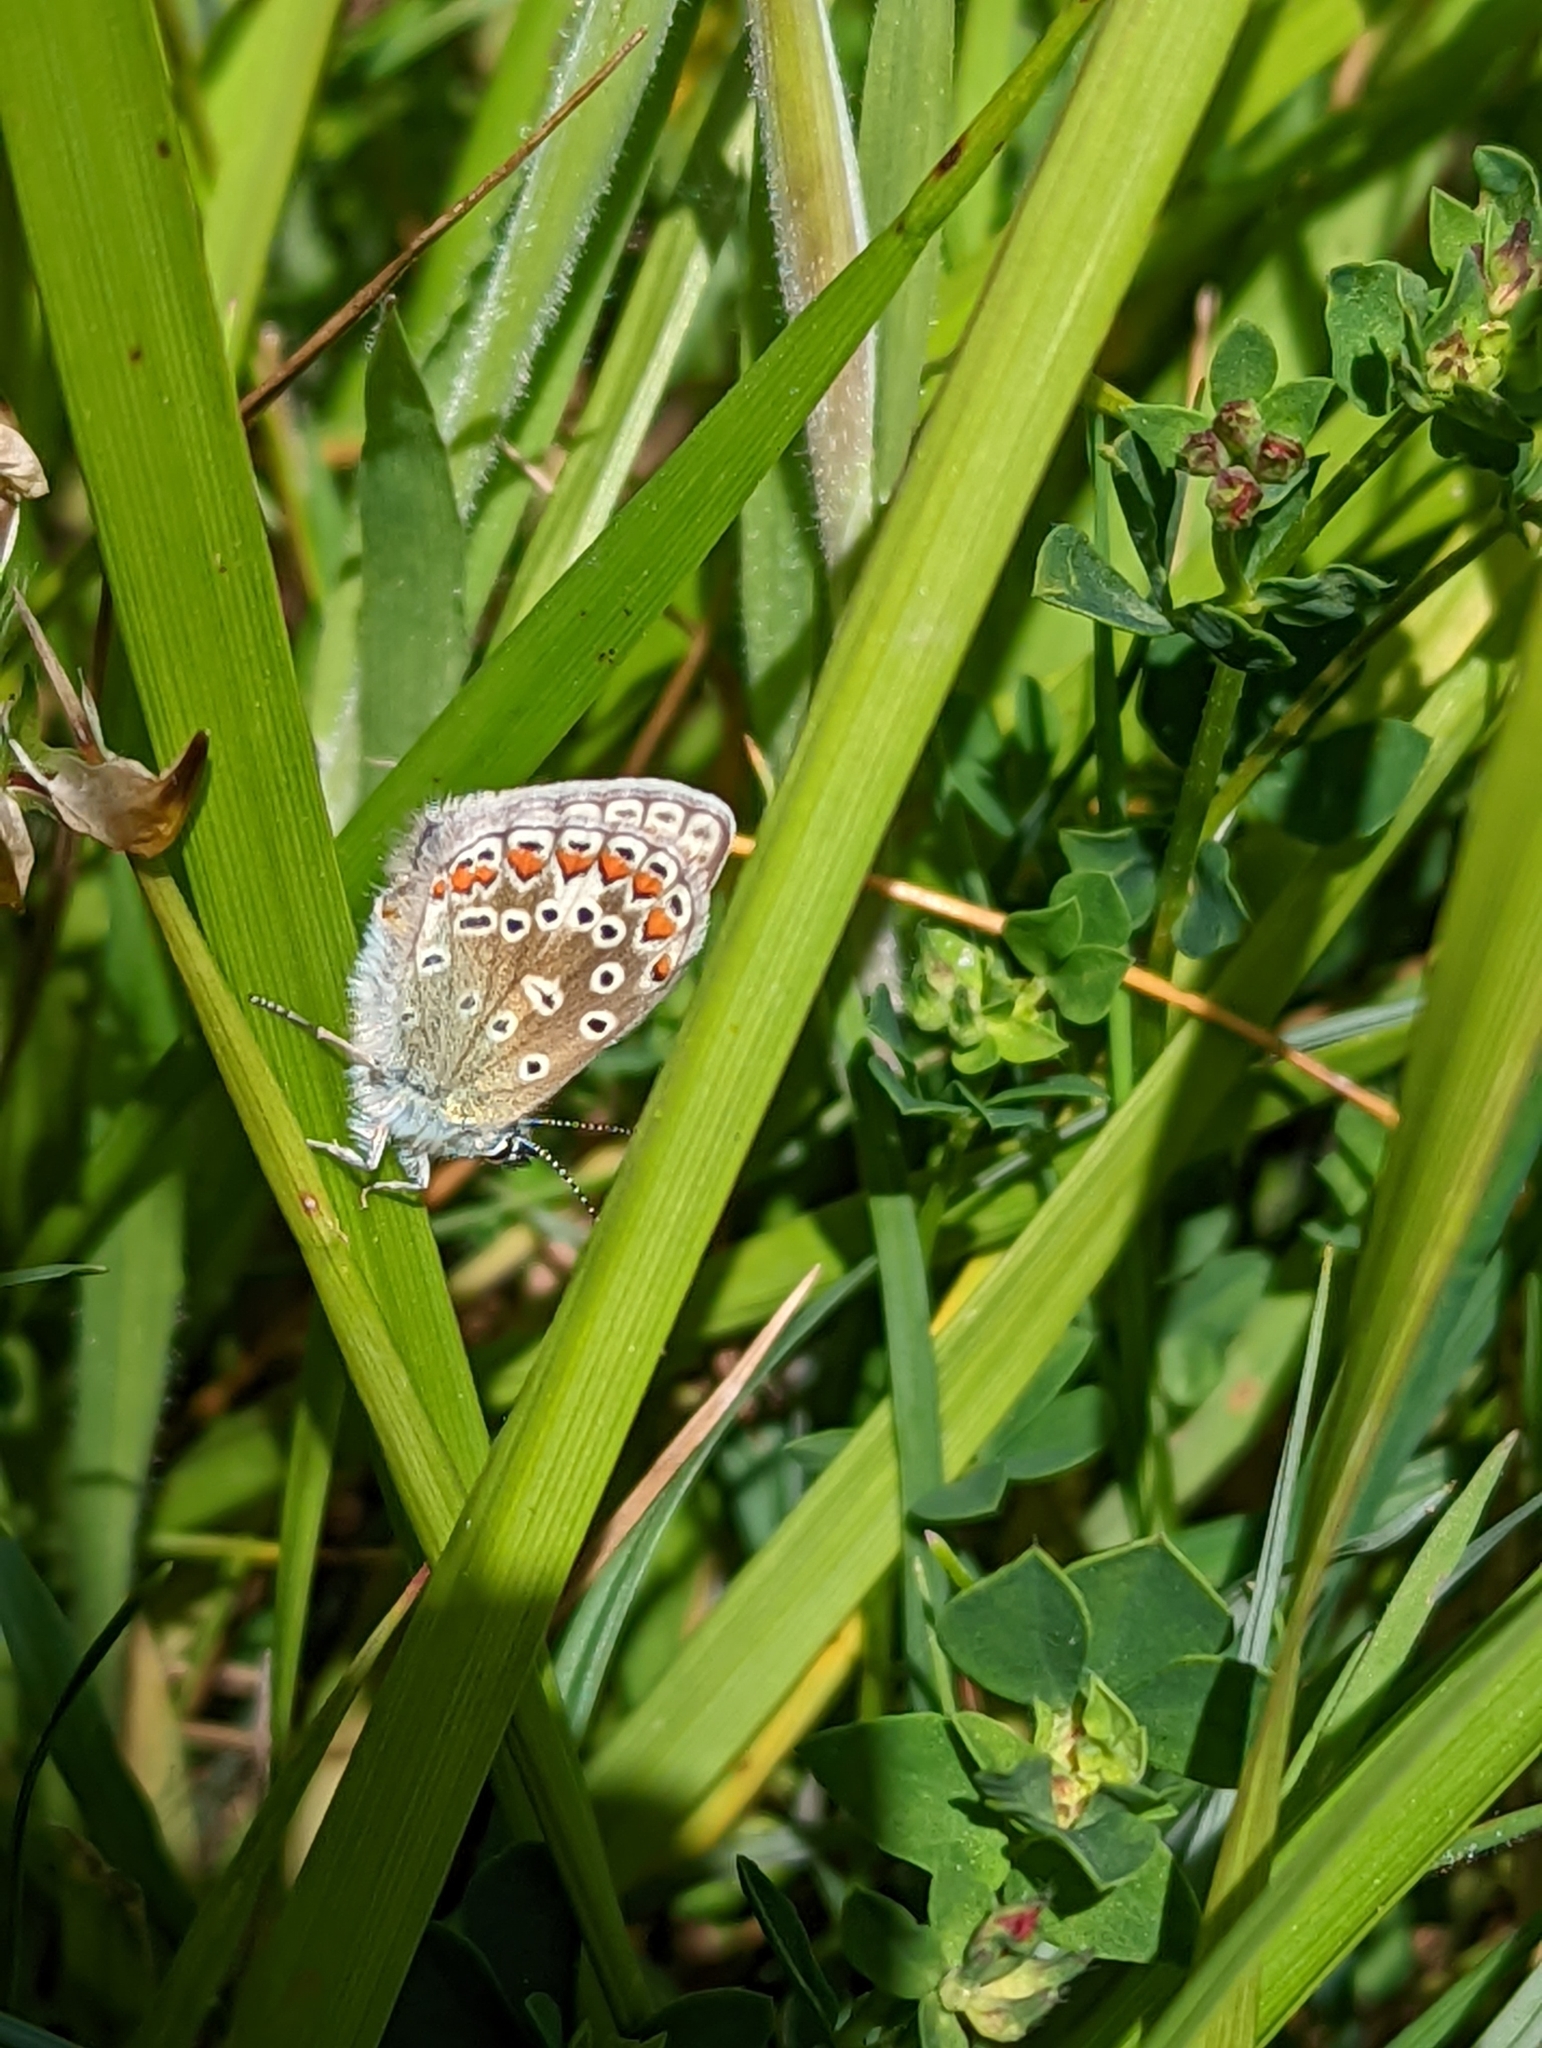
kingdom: Animalia
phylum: Arthropoda
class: Insecta
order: Lepidoptera
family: Lycaenidae
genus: Polyommatus
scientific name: Polyommatus icarus
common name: Common blue
